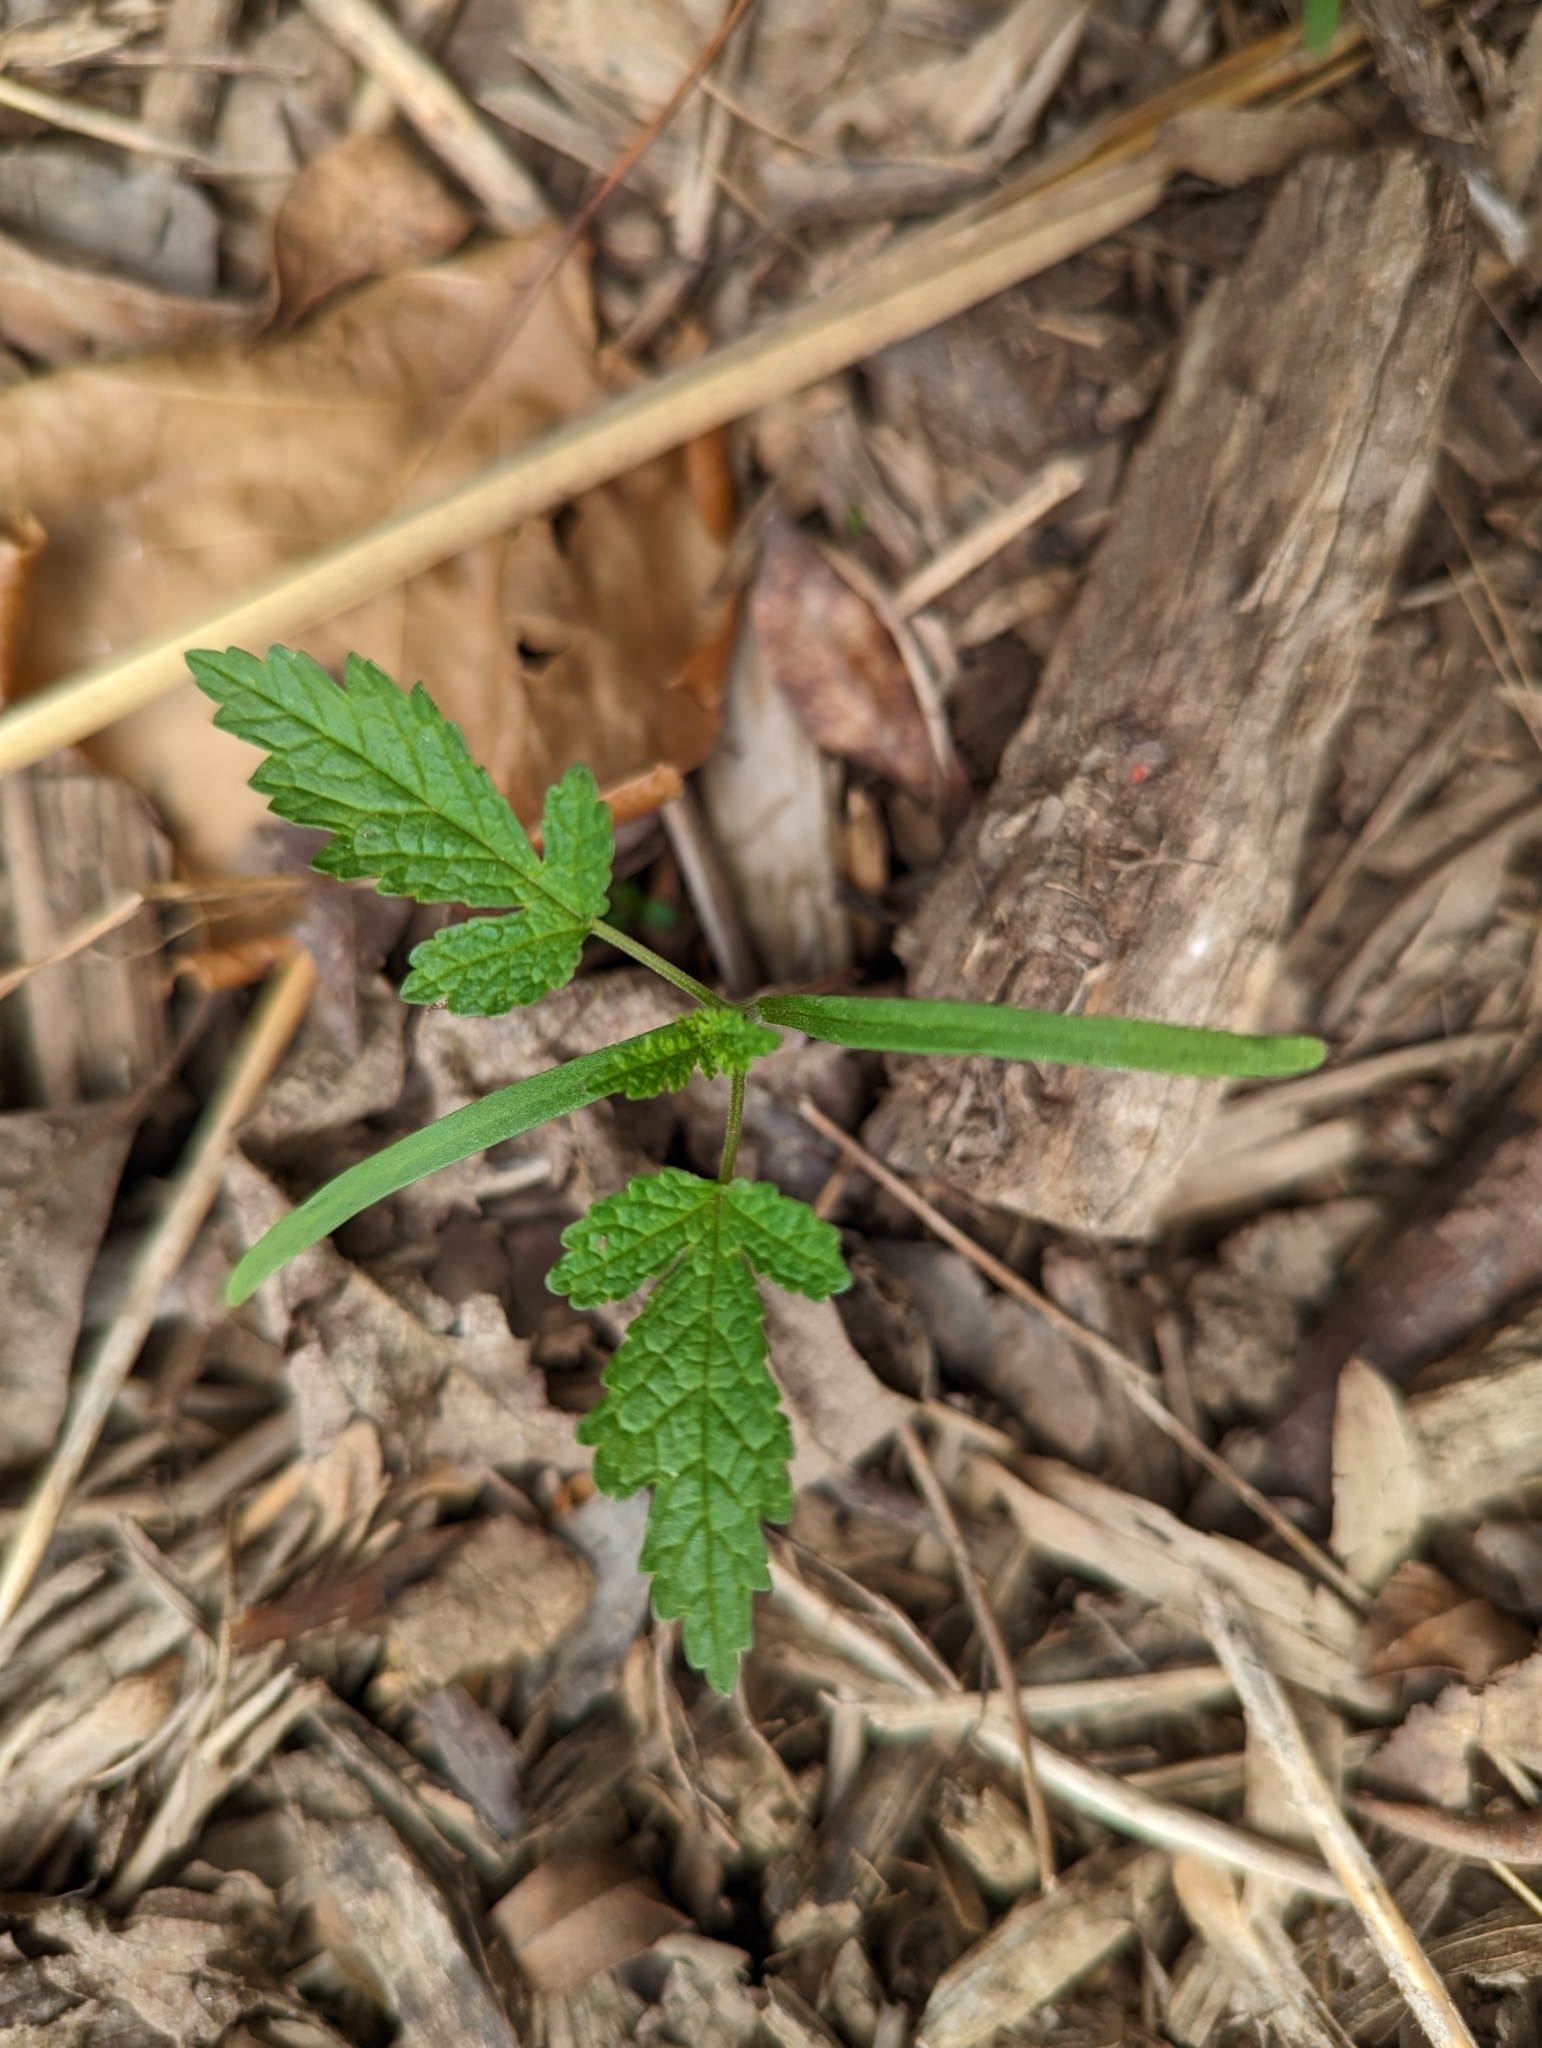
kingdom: Plantae
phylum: Tracheophyta
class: Magnoliopsida
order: Rosales
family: Cannabaceae
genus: Humulus
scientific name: Humulus scandens
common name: Japanese hop
